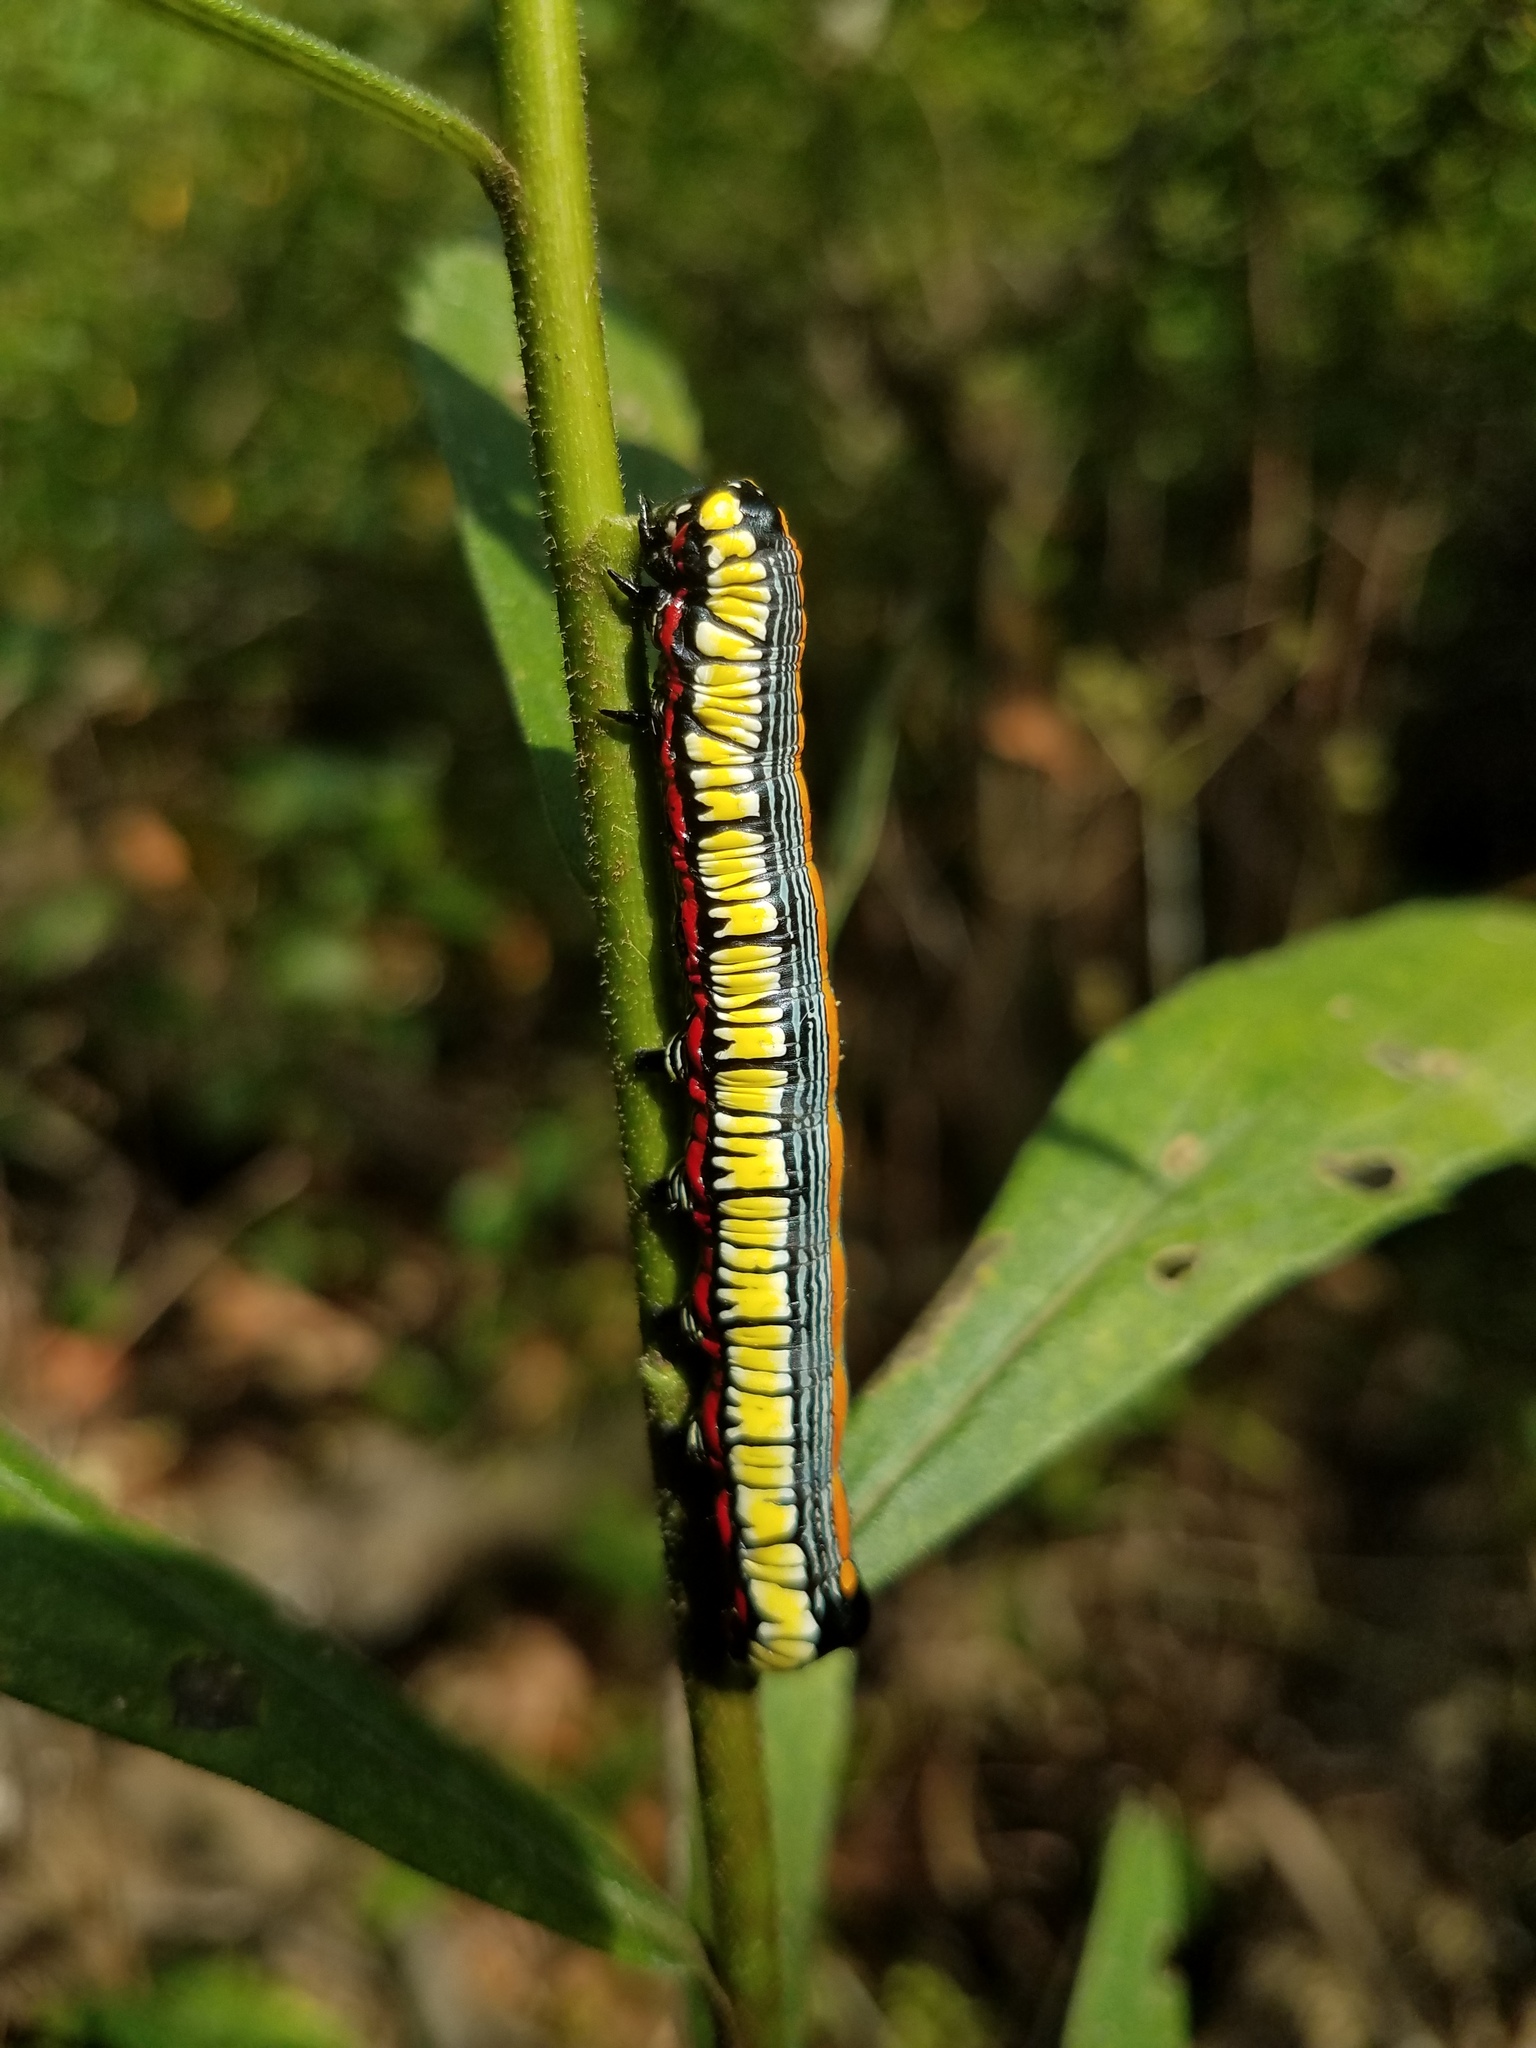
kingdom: Animalia
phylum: Arthropoda
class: Insecta
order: Lepidoptera
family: Noctuidae
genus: Cucullia
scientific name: Cucullia convexipennis
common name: Brown-hooded owlet
